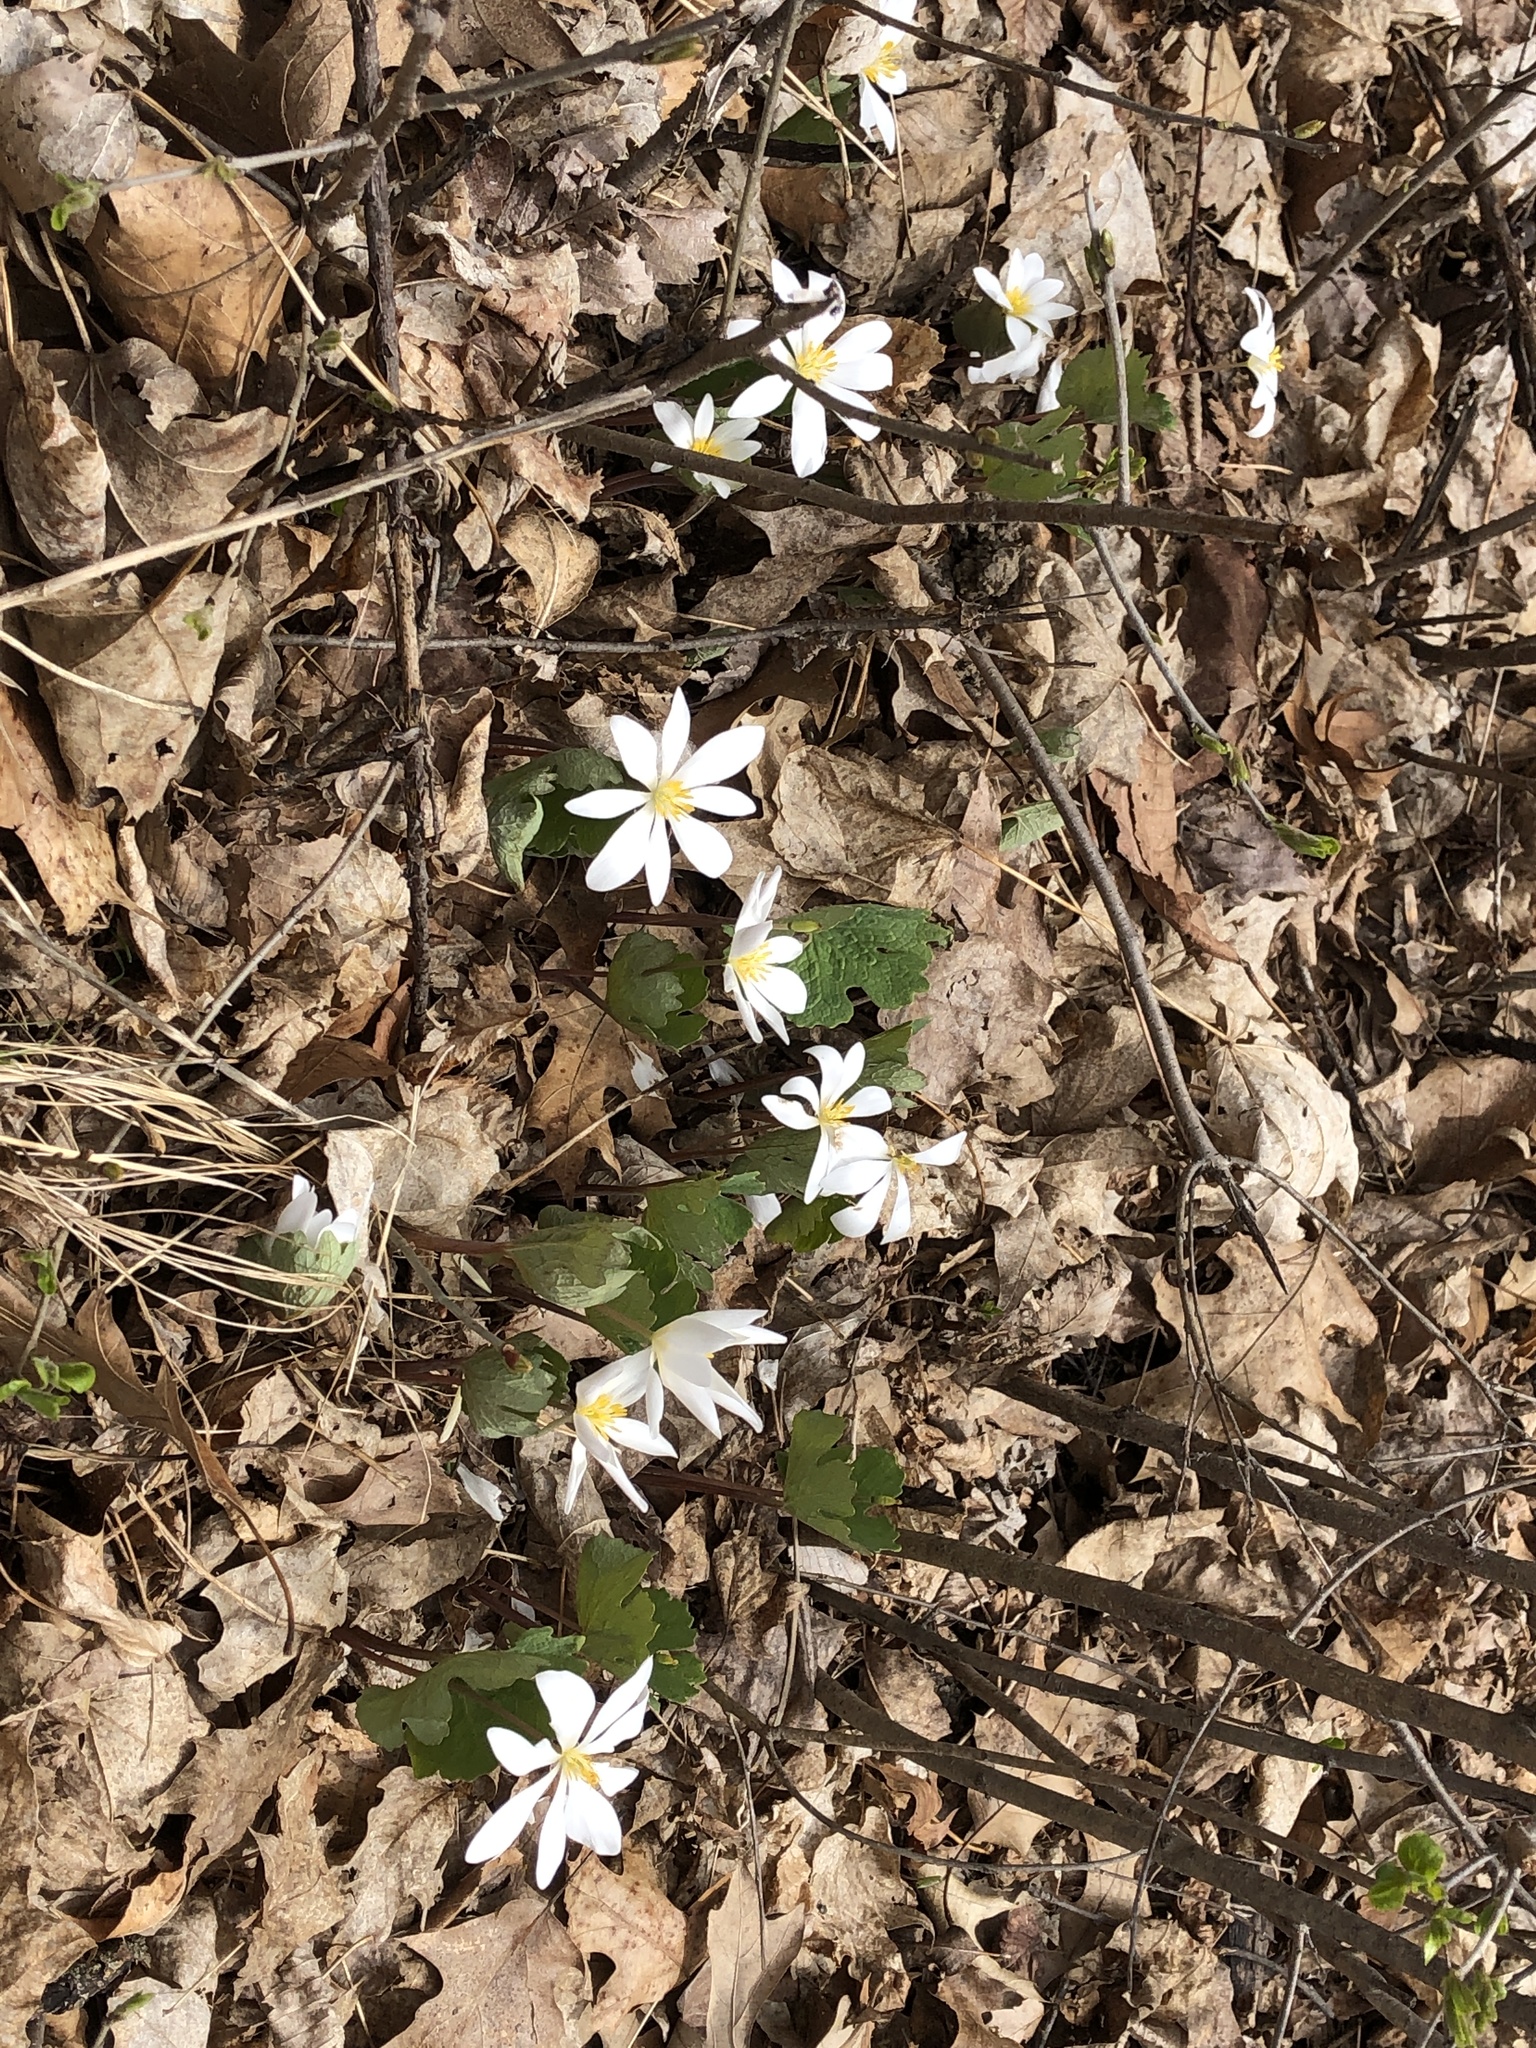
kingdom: Plantae
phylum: Tracheophyta
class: Magnoliopsida
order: Ranunculales
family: Papaveraceae
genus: Sanguinaria
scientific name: Sanguinaria canadensis
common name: Bloodroot
